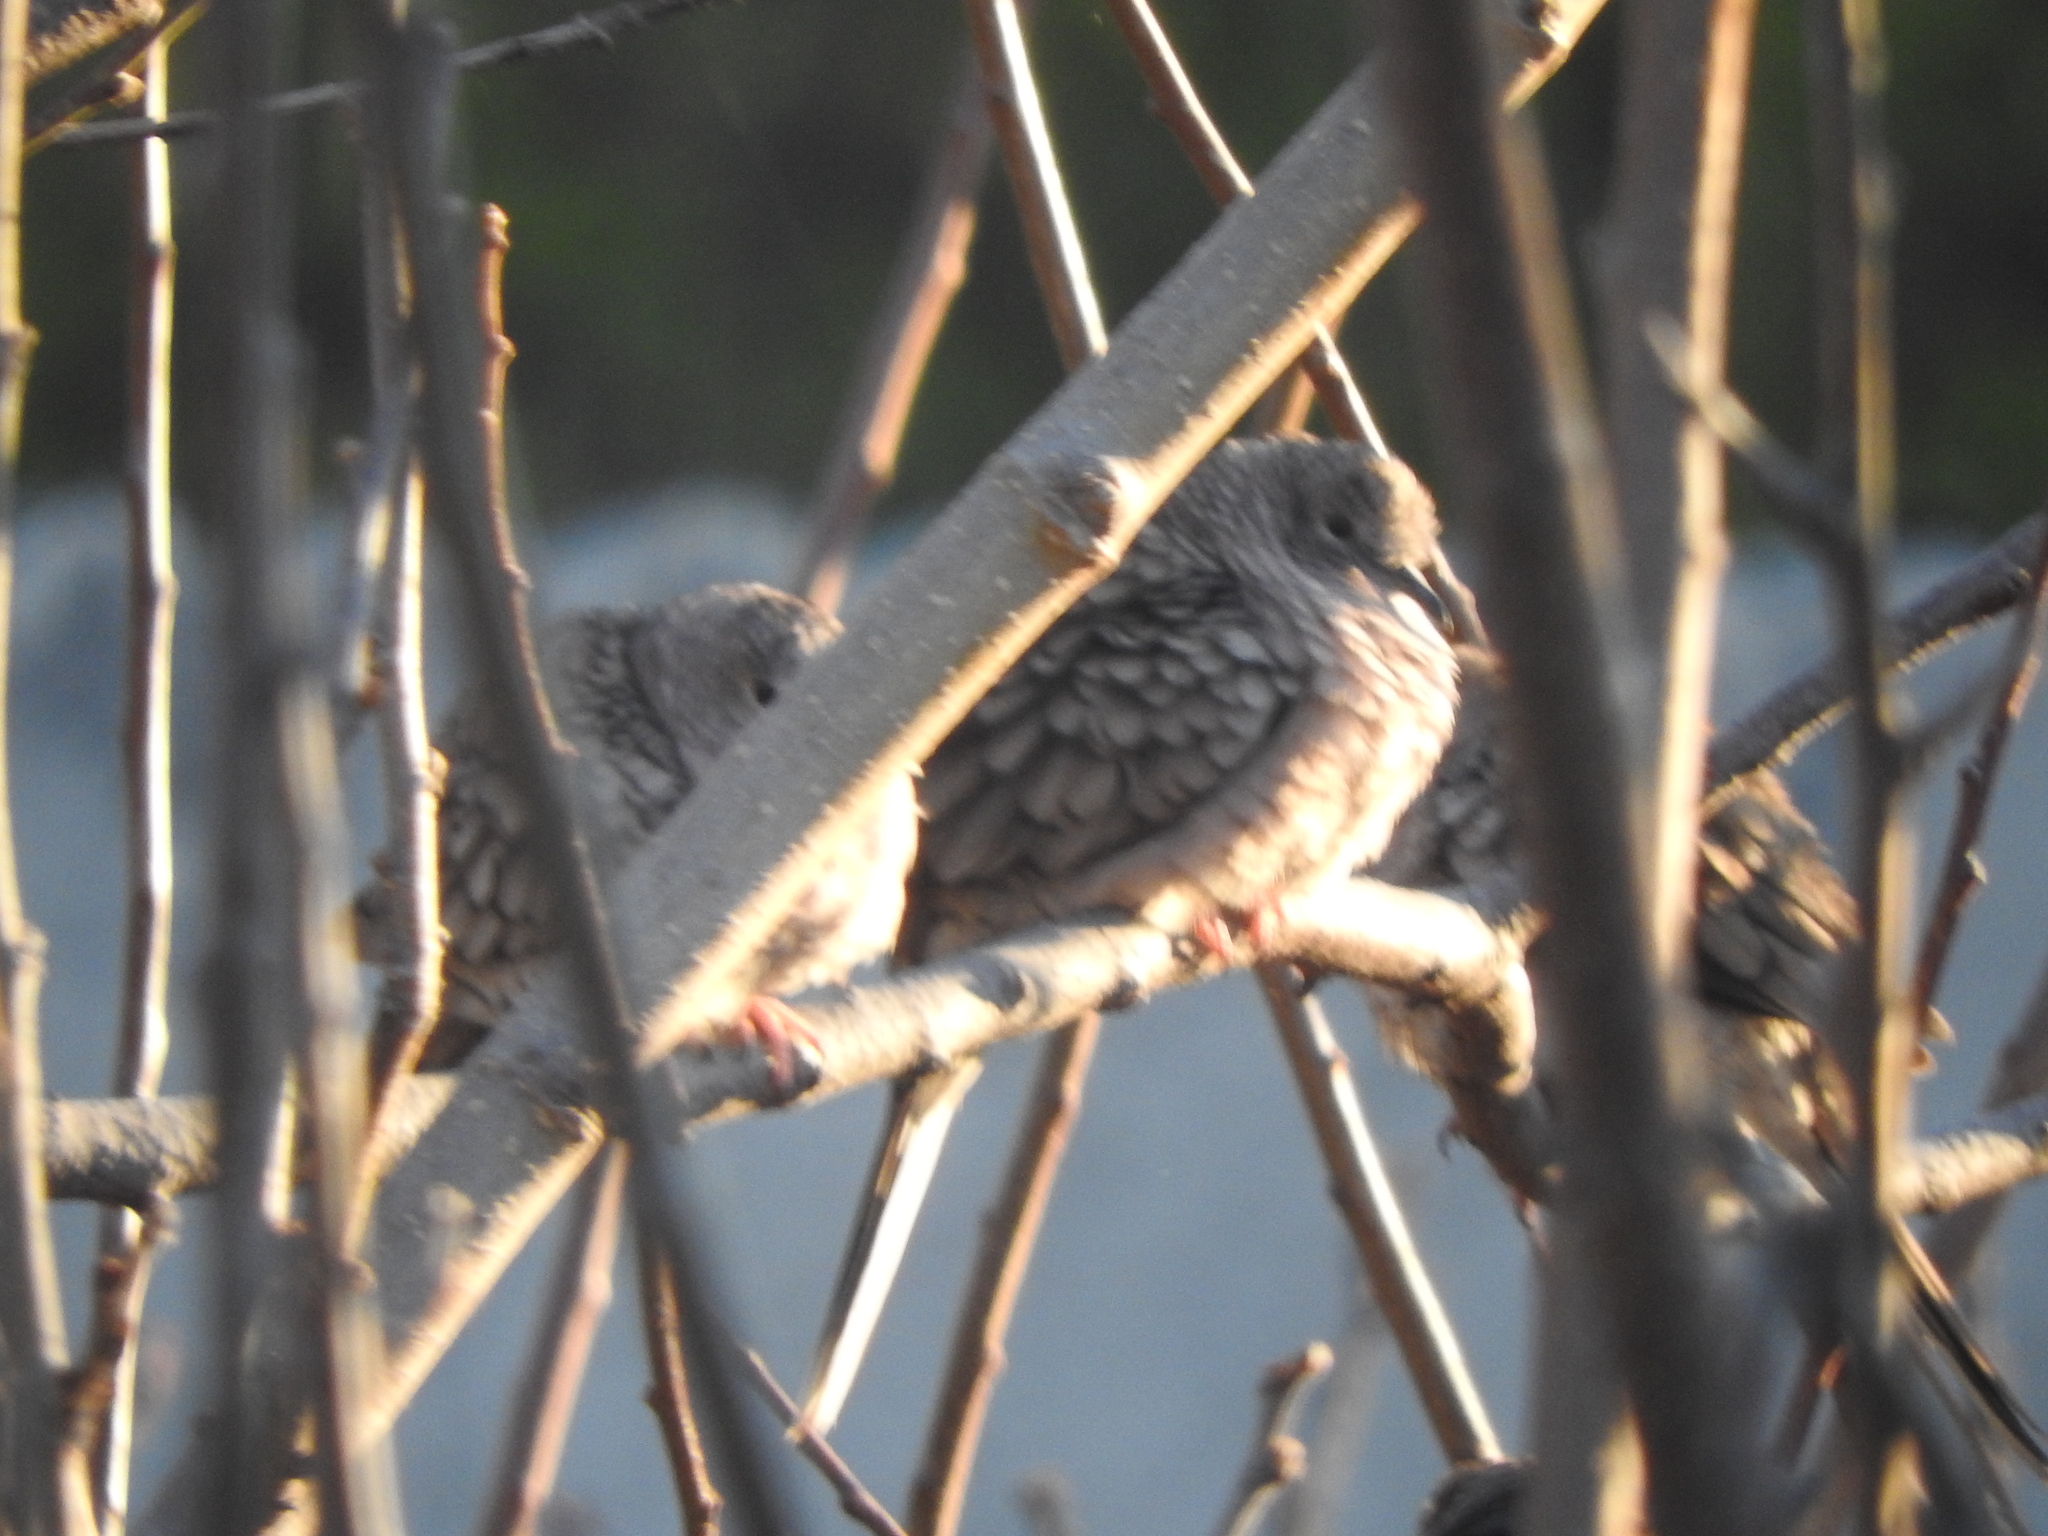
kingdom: Animalia
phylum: Chordata
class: Aves
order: Columbiformes
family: Columbidae
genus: Columbina
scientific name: Columbina inca
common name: Inca dove
